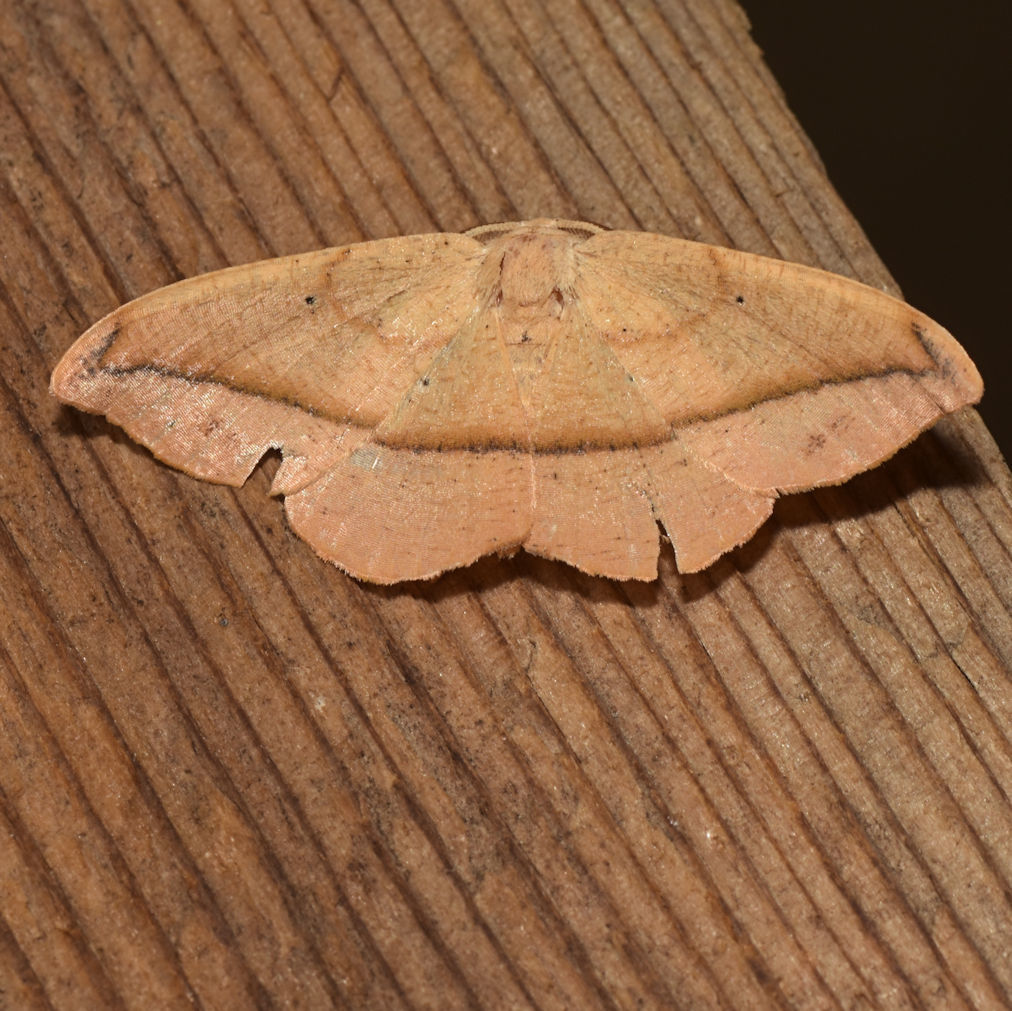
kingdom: Animalia
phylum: Arthropoda
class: Insecta
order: Lepidoptera
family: Geometridae
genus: Patalene
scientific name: Patalene olyzonaria
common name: Juniper geometer moth
